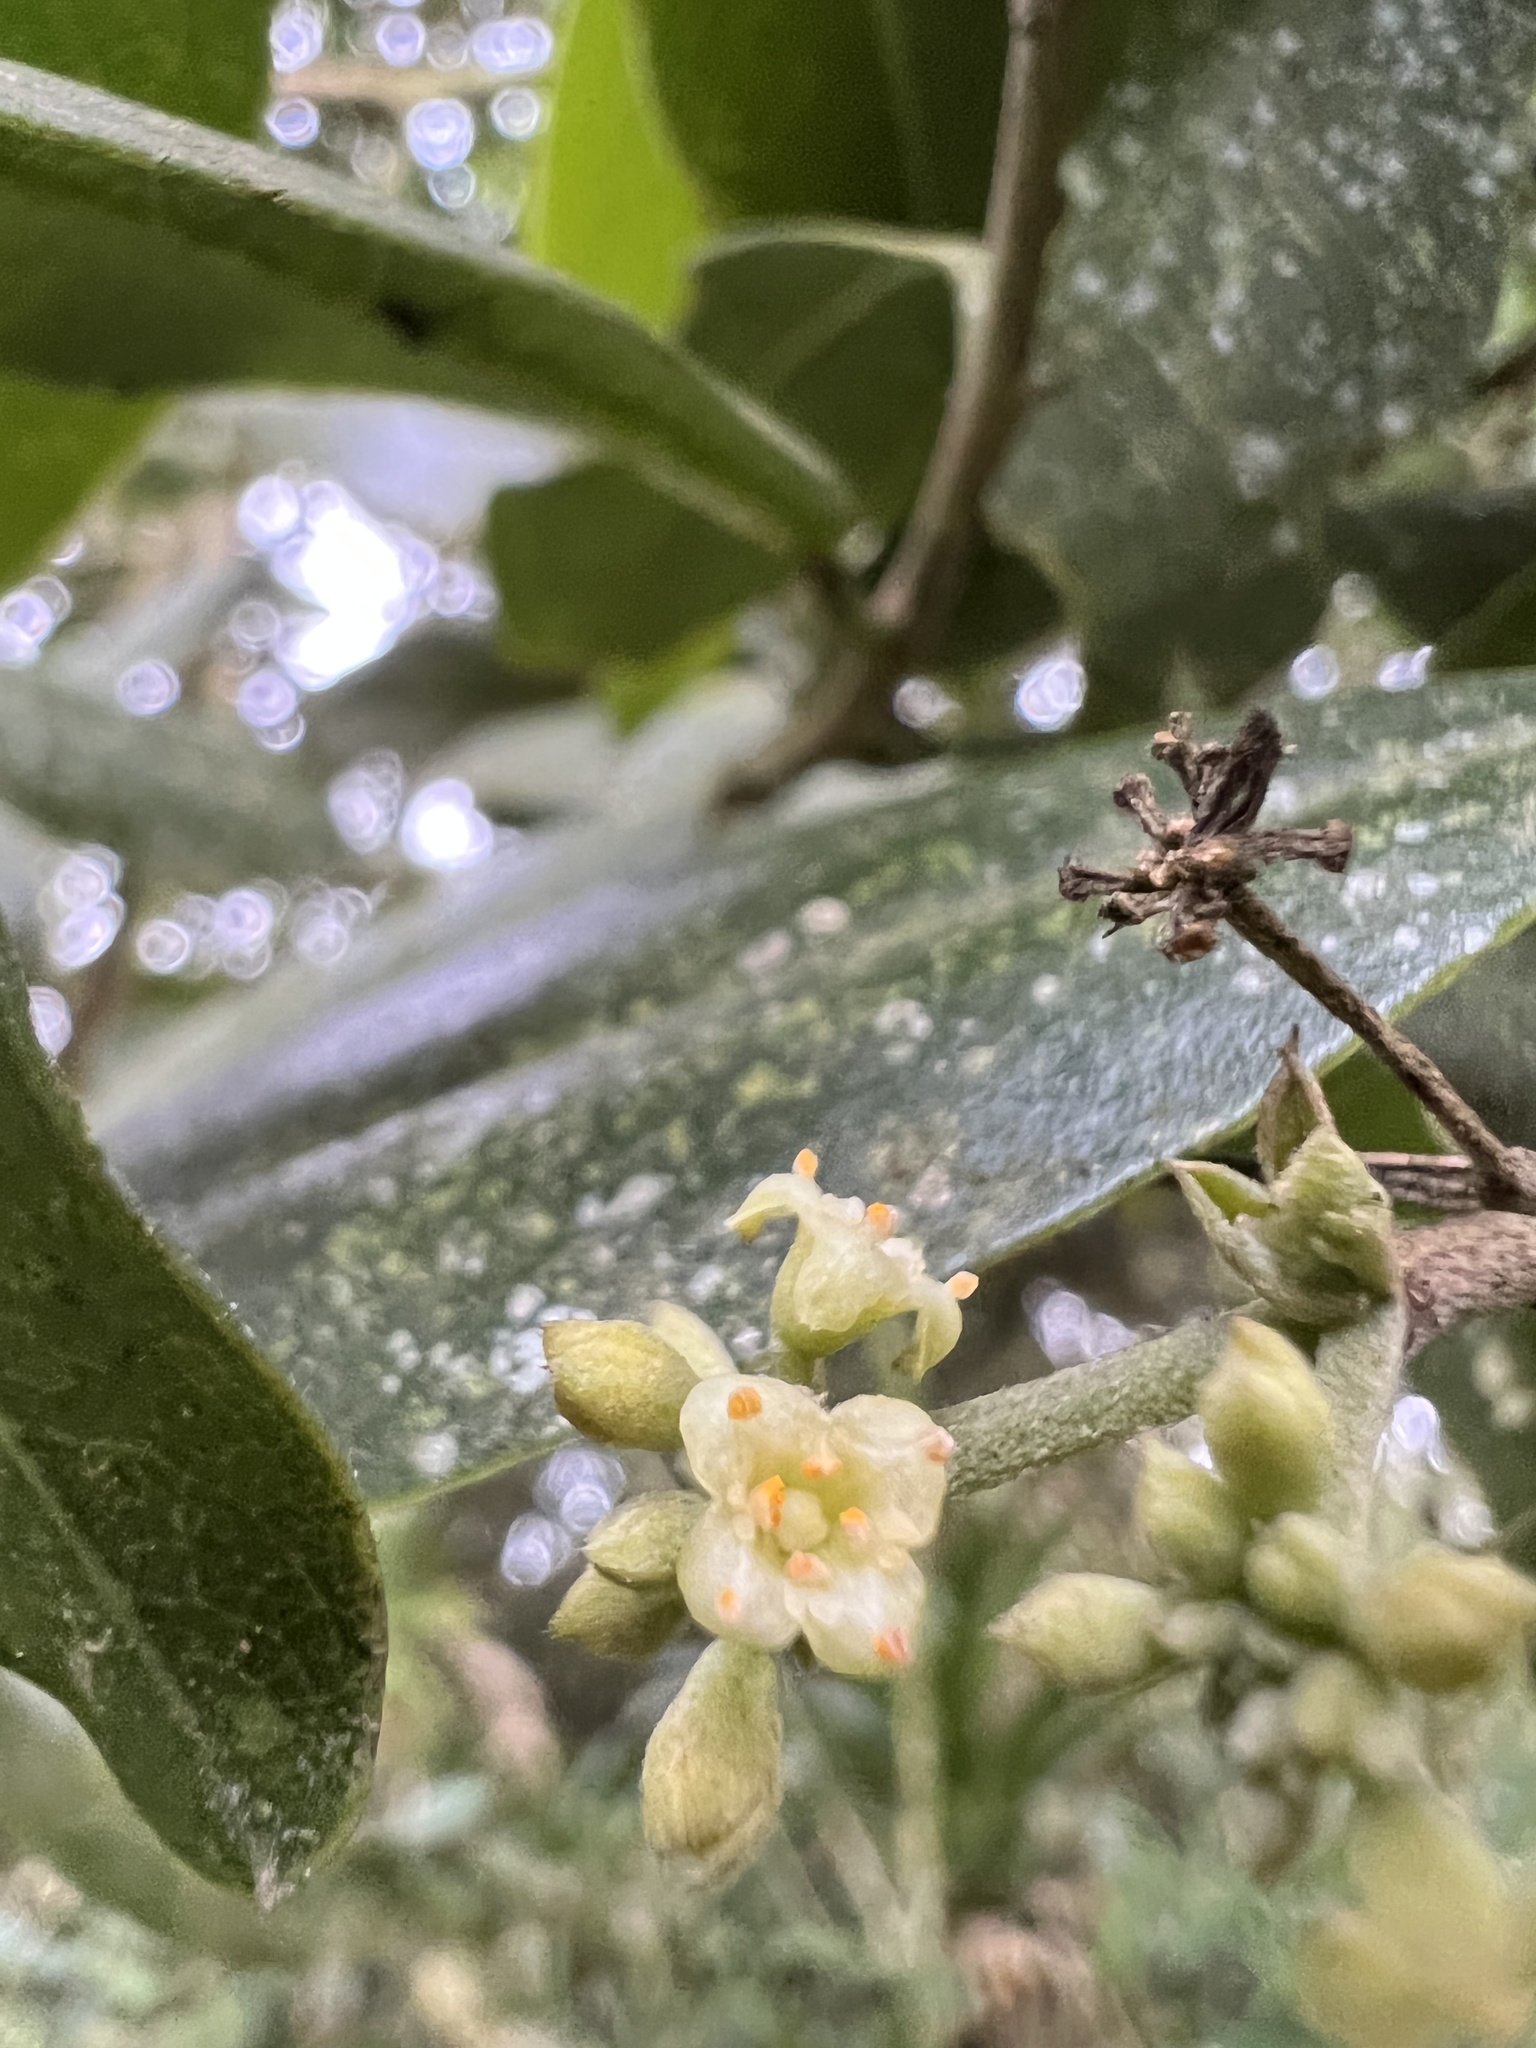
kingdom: Plantae
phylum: Tracheophyta
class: Magnoliopsida
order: Malvales
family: Thymelaeaceae
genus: Daphnopsis
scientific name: Daphnopsis caracasana
